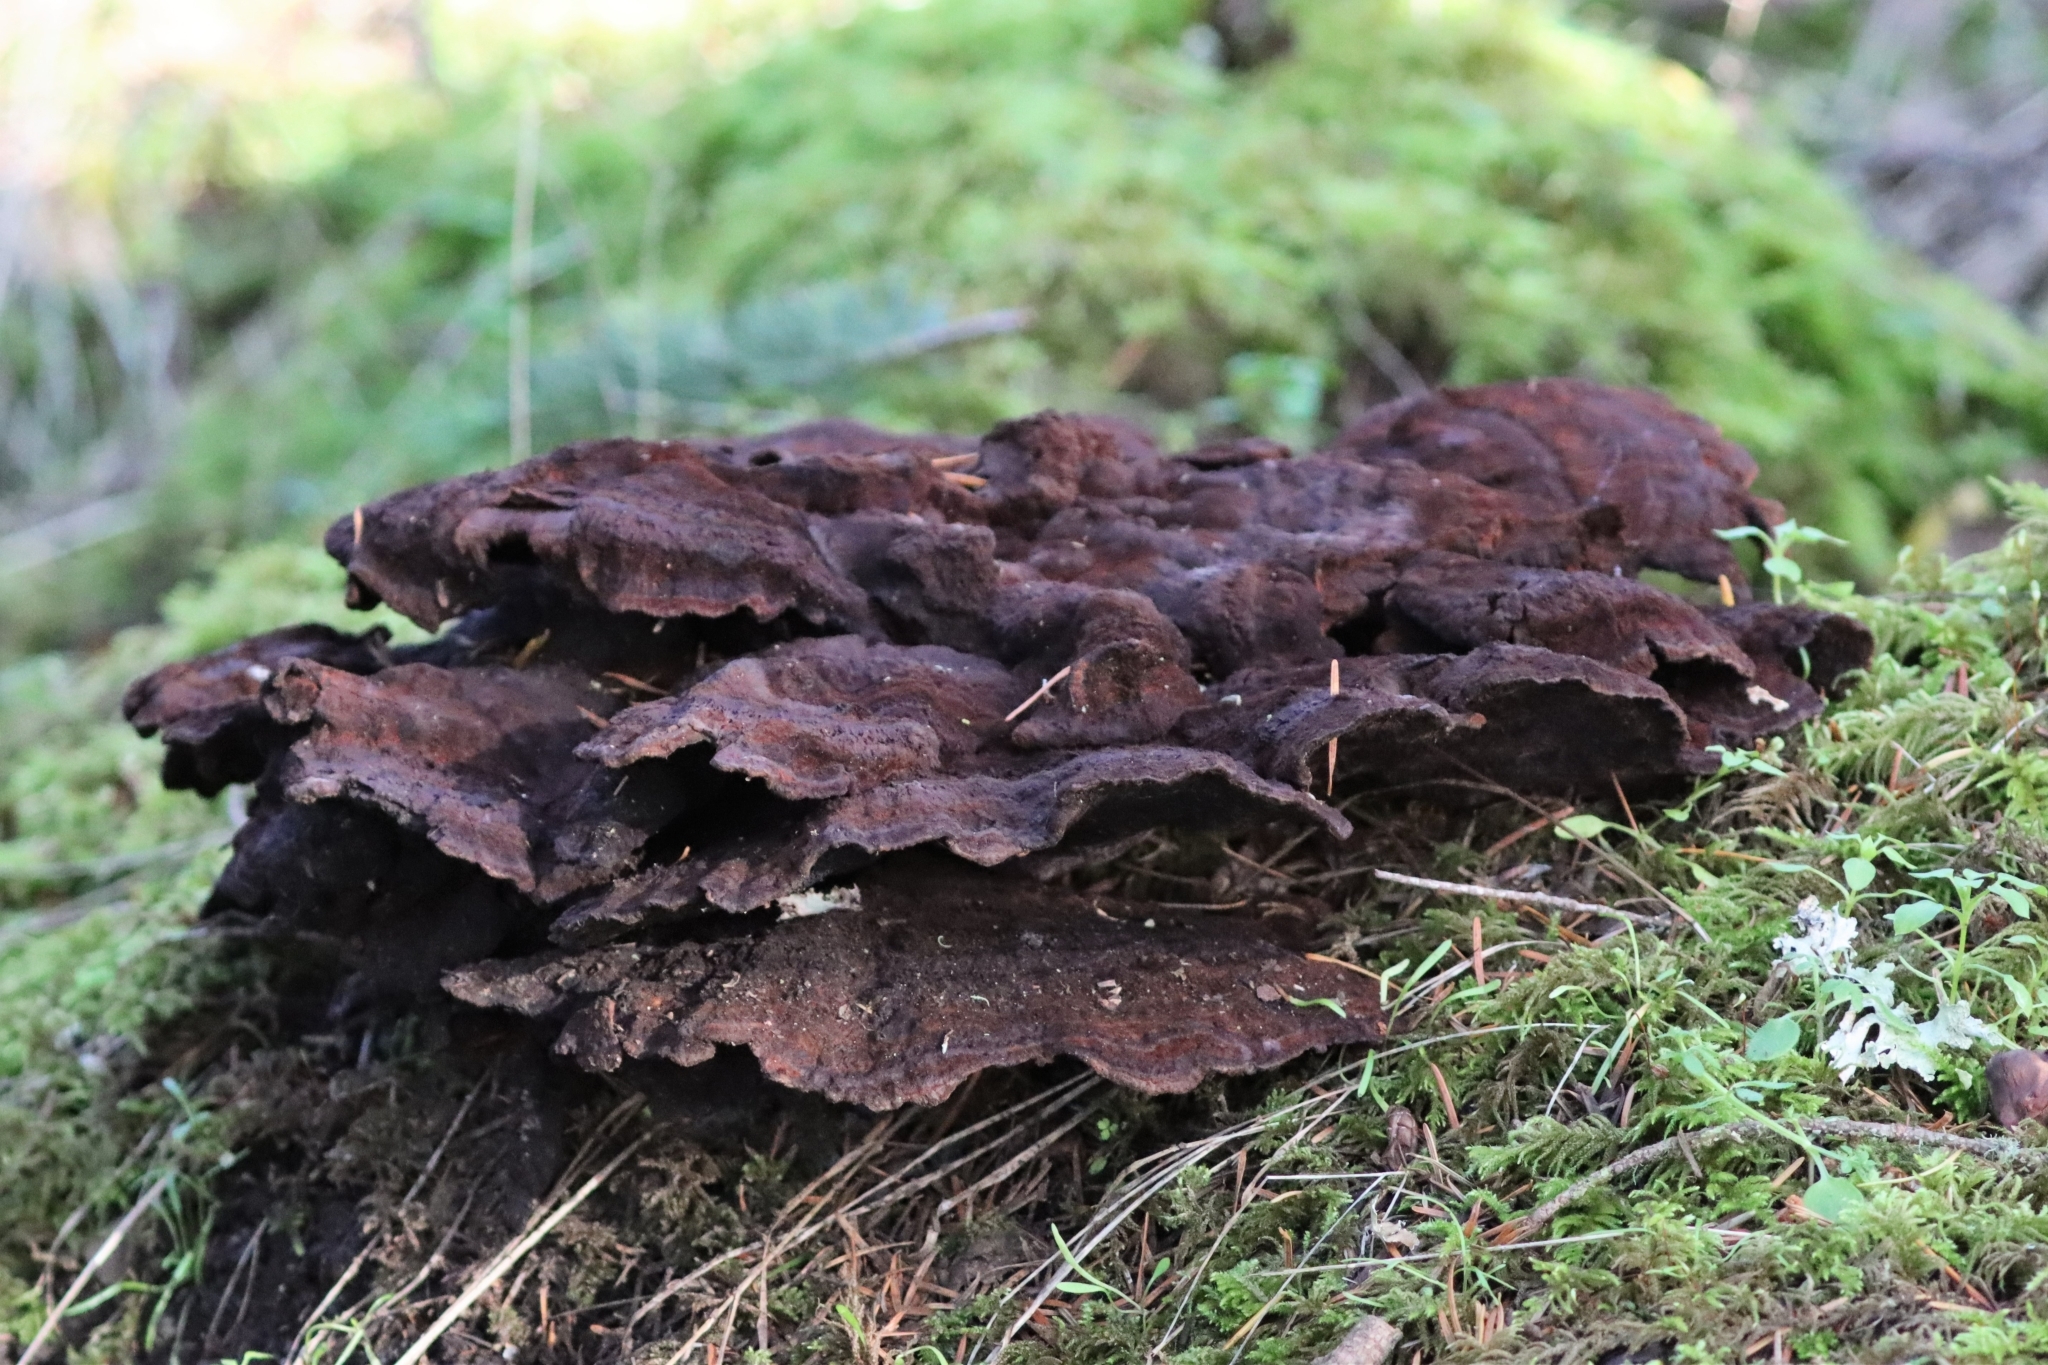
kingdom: Fungi
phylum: Basidiomycota
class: Agaricomycetes
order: Polyporales
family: Laetiporaceae
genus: Phaeolus
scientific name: Phaeolus schweinitzii
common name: Dyer's mazegill
